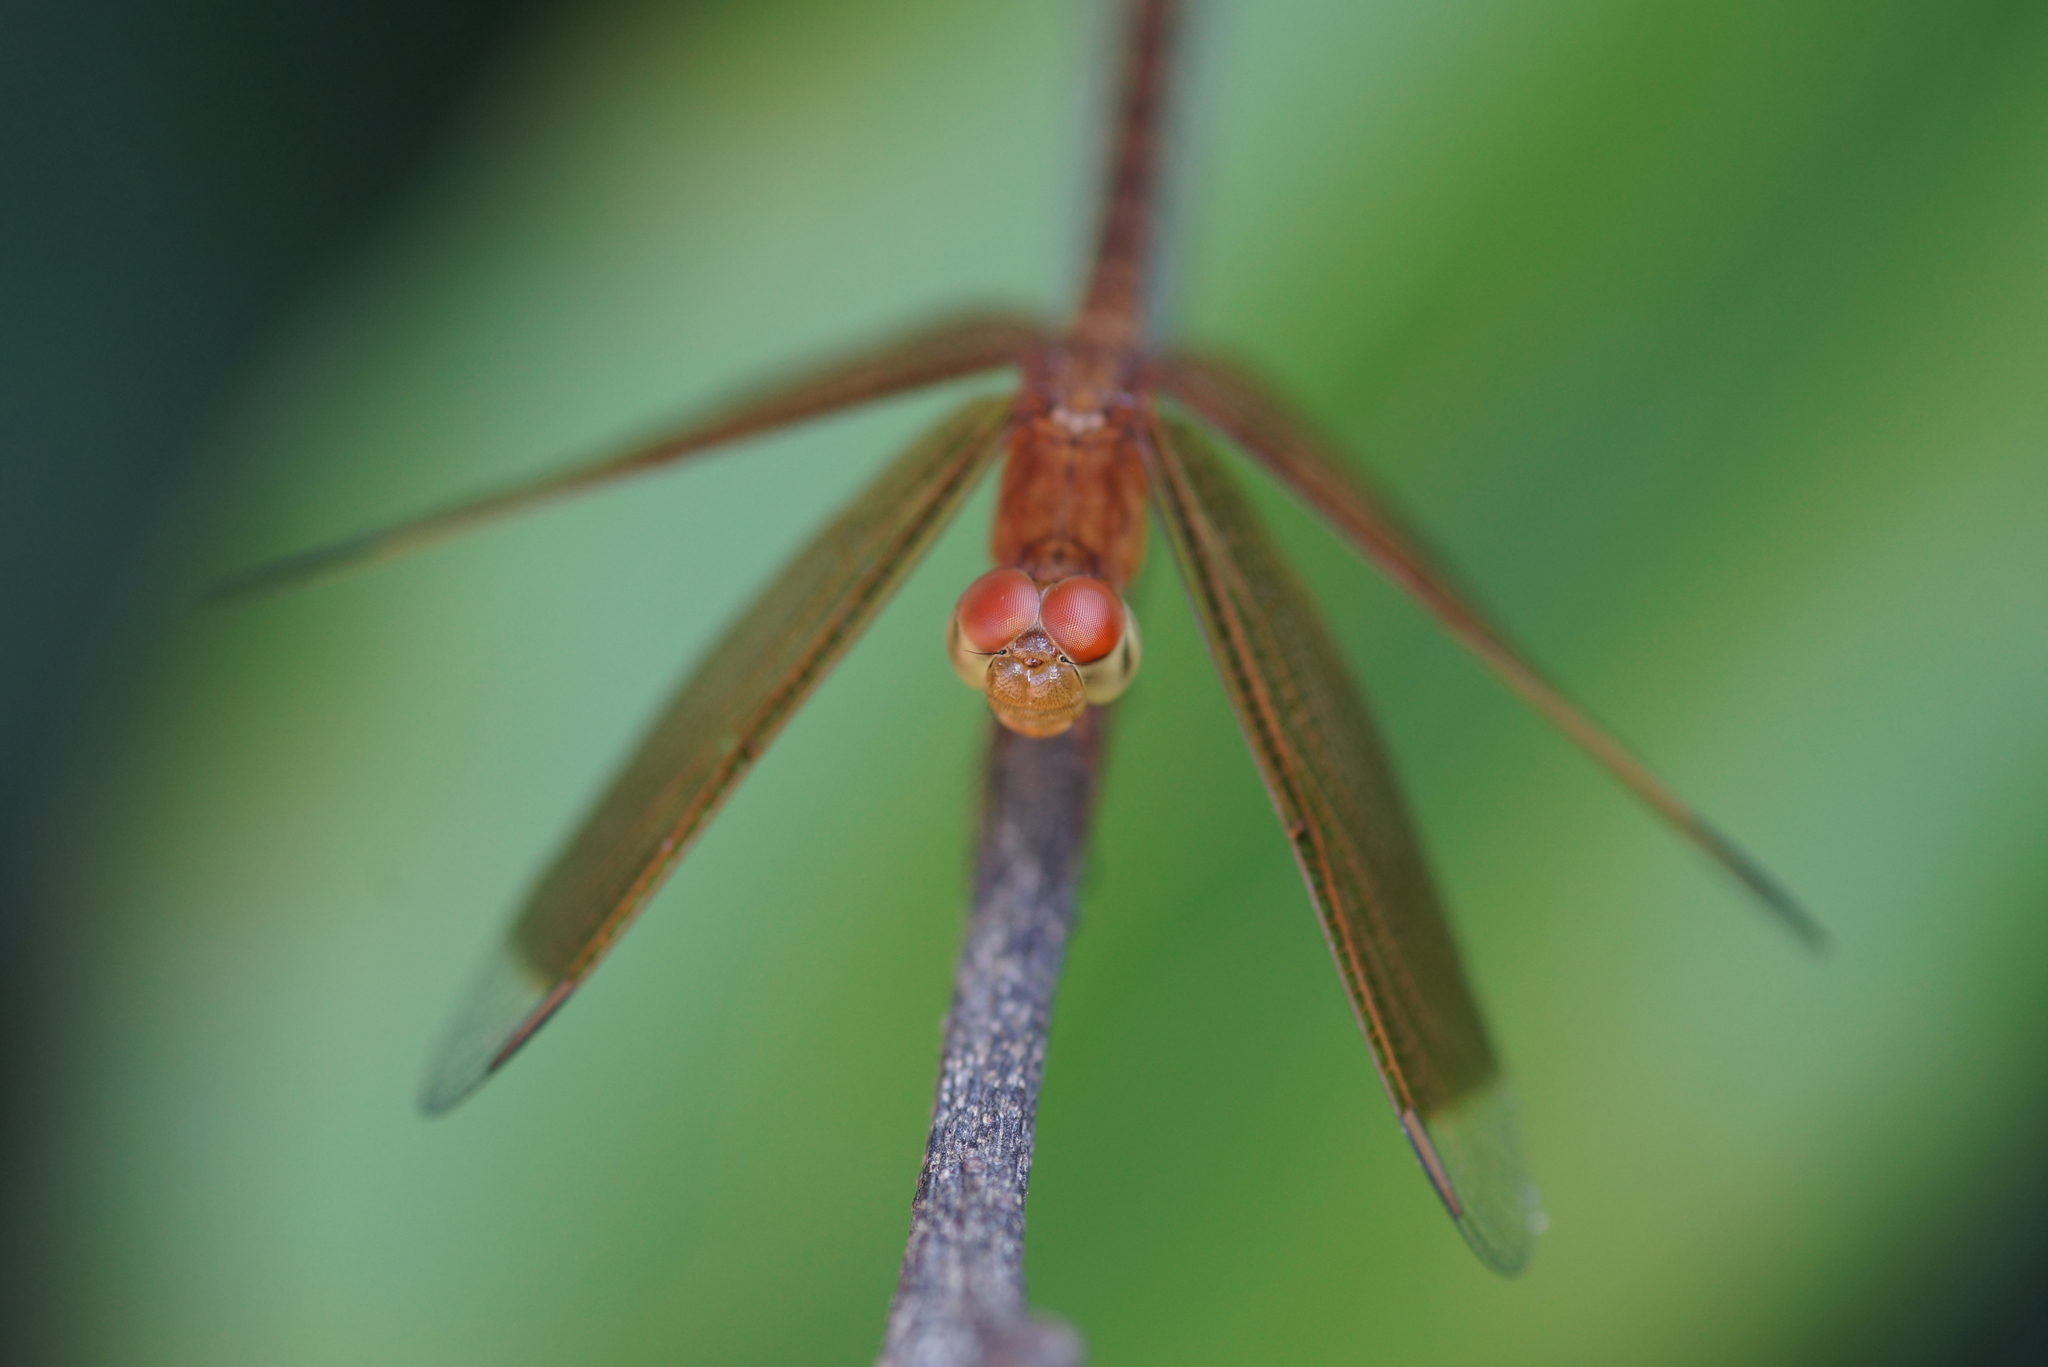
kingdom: Animalia
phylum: Arthropoda
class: Insecta
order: Odonata
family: Libellulidae
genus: Neurothemis
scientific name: Neurothemis fluctuans
